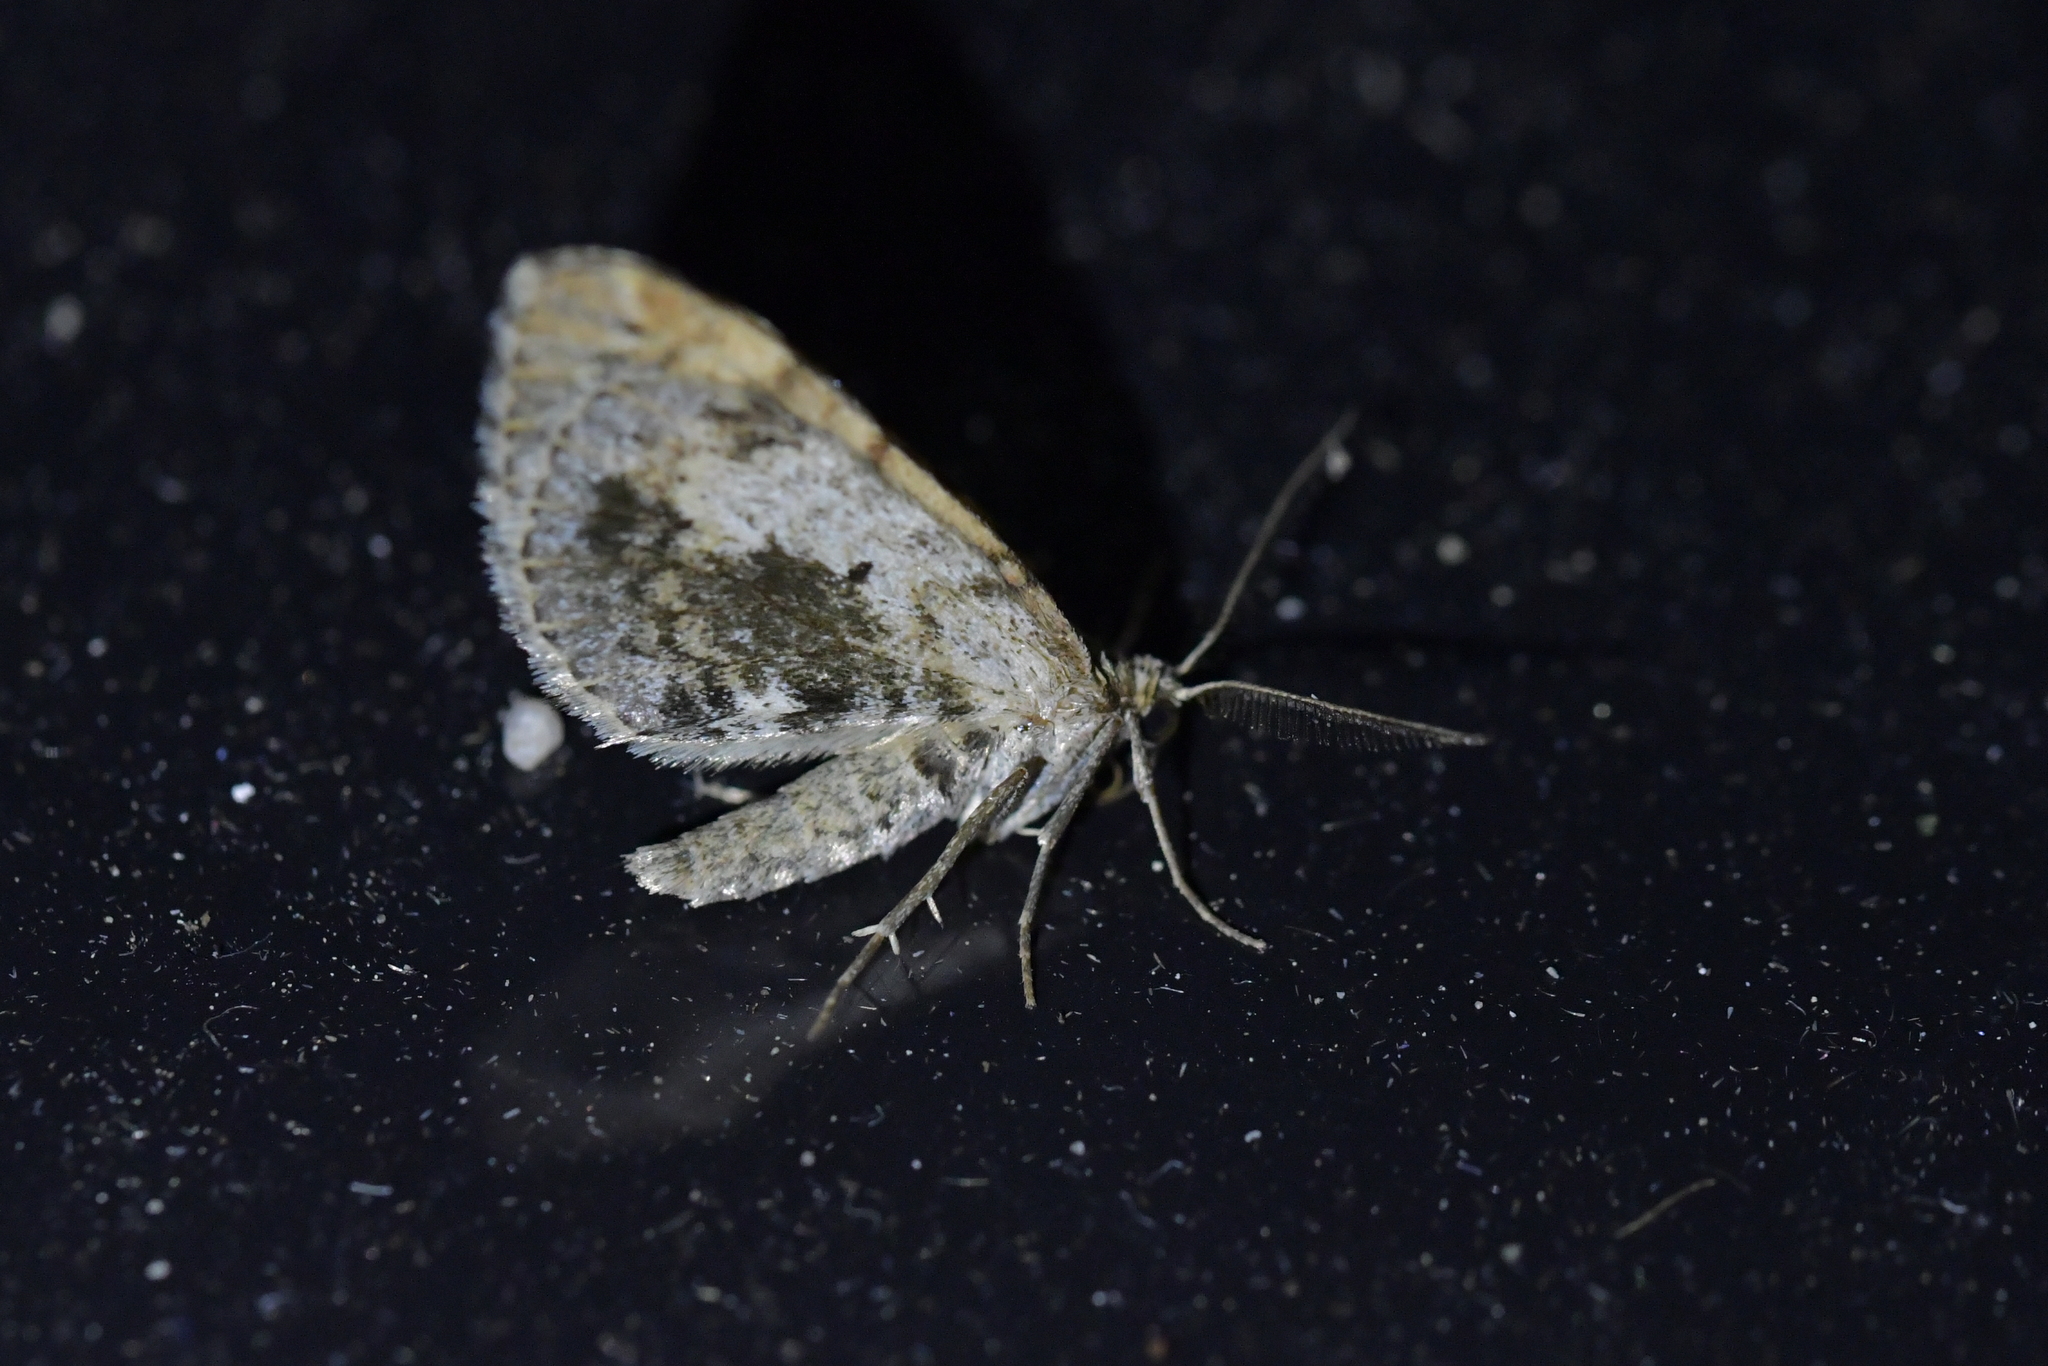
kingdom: Animalia
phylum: Arthropoda
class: Insecta
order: Lepidoptera
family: Geometridae
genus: Asaphodes
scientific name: Asaphodes aegrota
